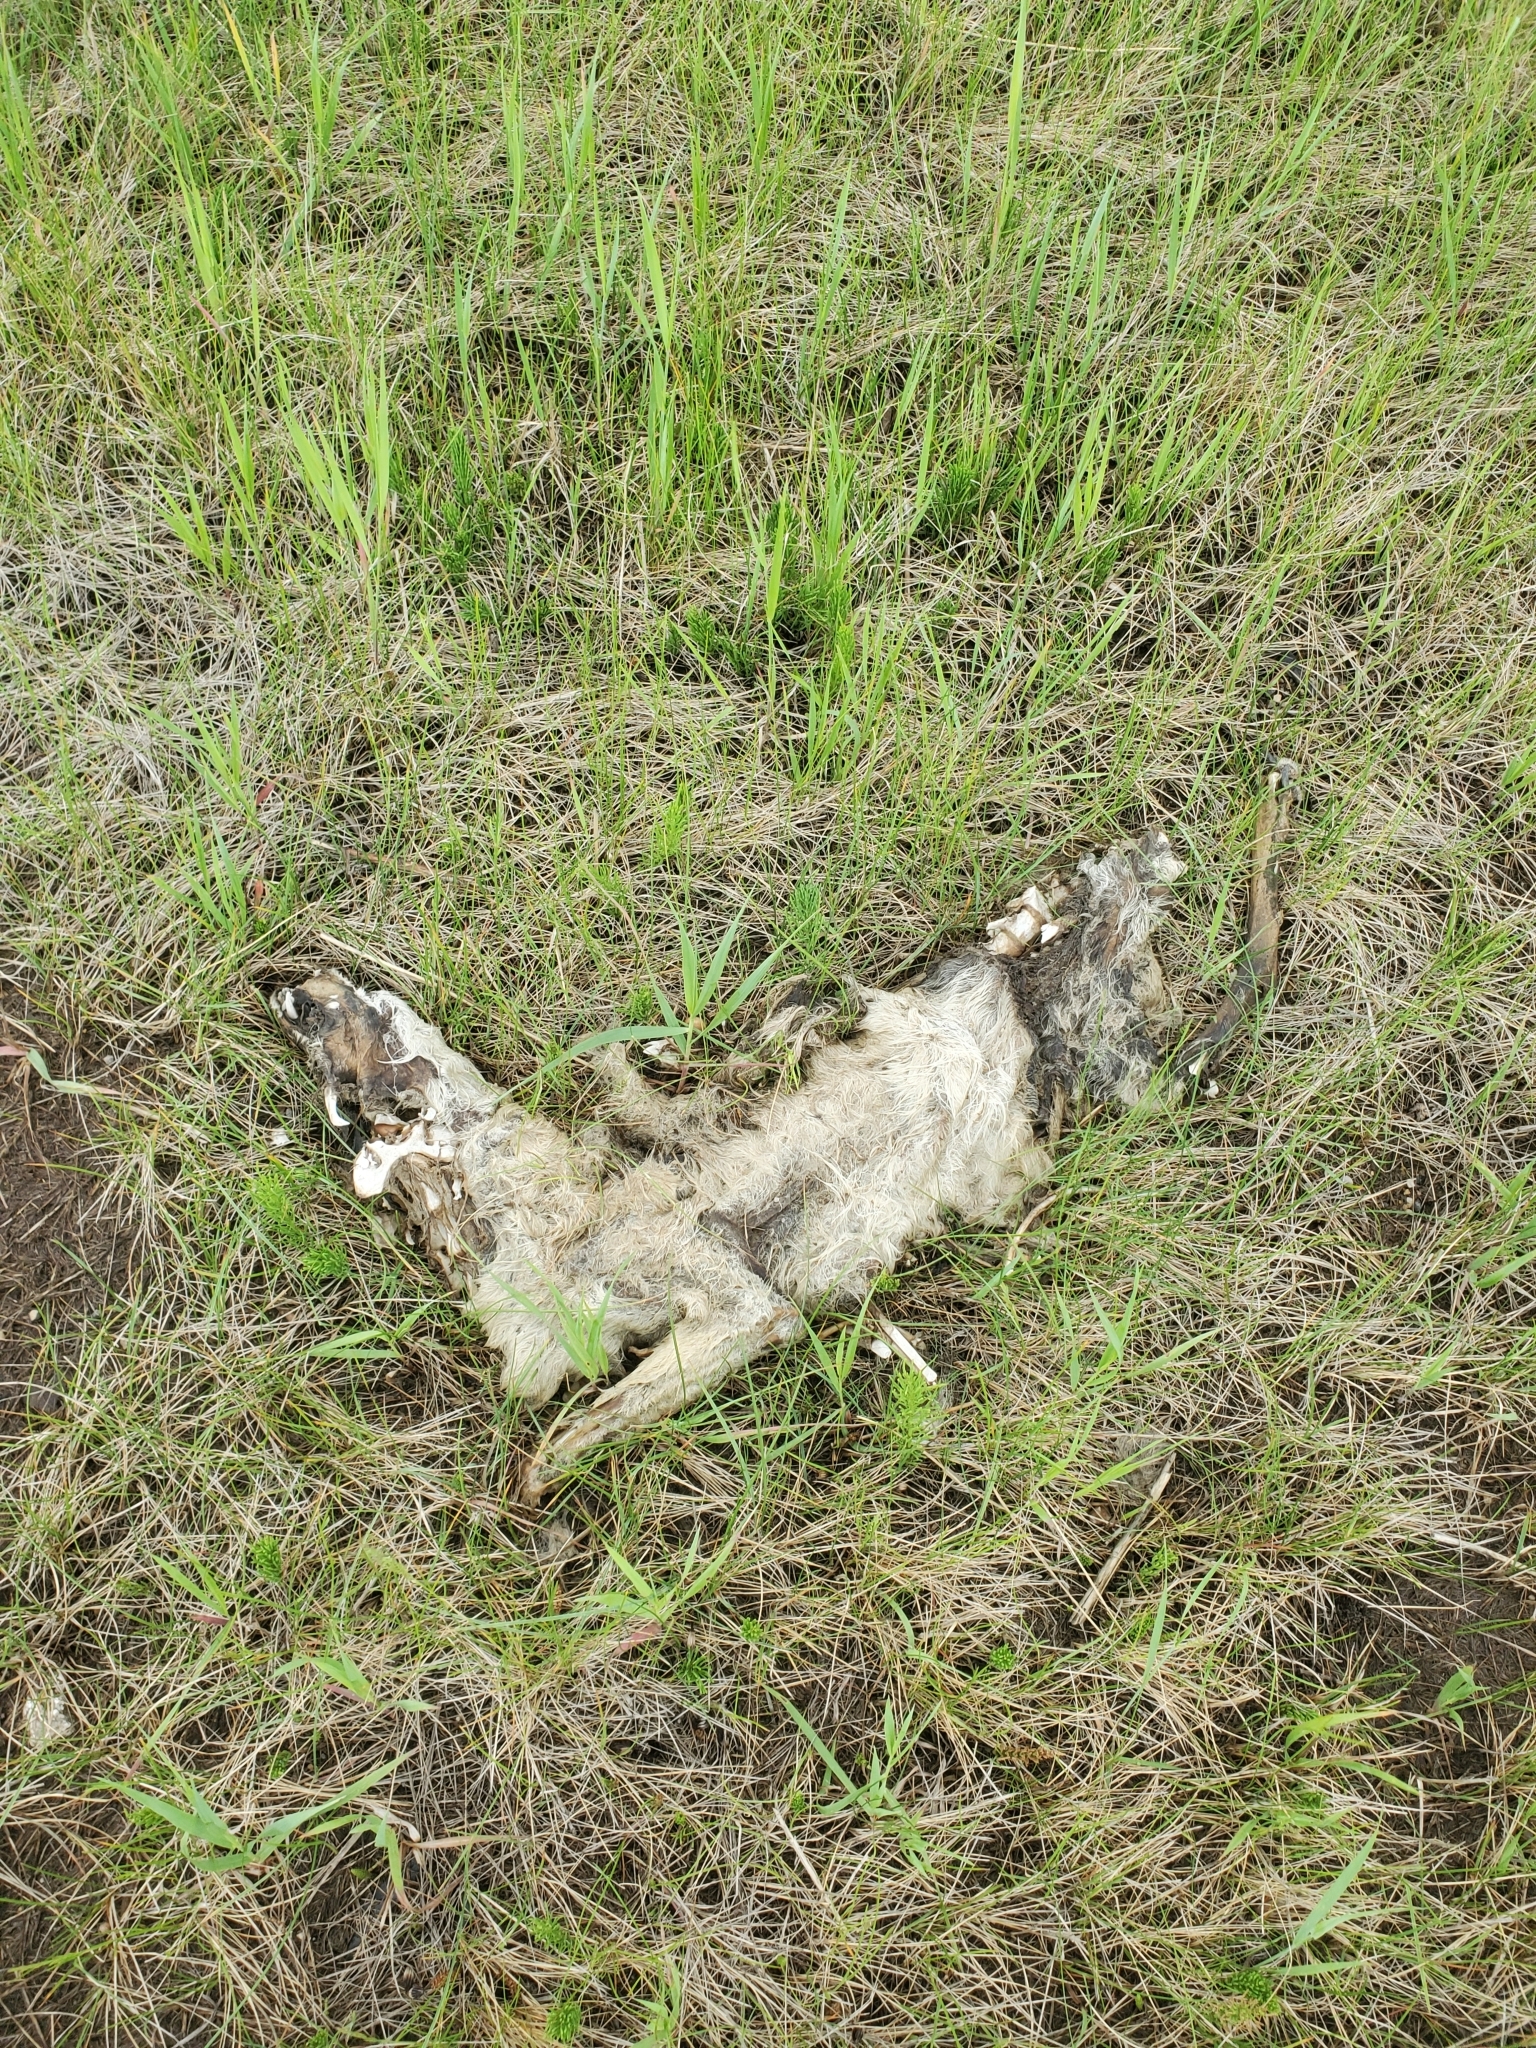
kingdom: Animalia
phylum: Chordata
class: Mammalia
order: Carnivora
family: Canidae
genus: Canis
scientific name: Canis latrans
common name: Coyote
